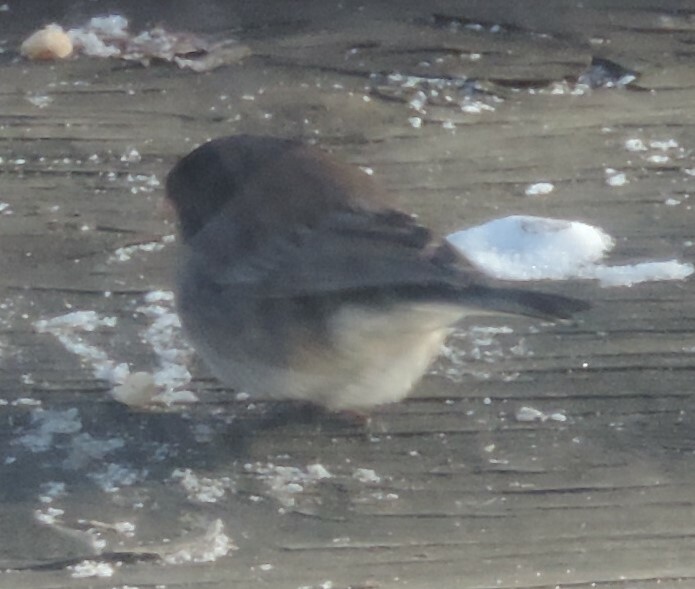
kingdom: Animalia
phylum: Chordata
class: Aves
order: Passeriformes
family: Passerellidae
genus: Junco
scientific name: Junco hyemalis
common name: Dark-eyed junco
